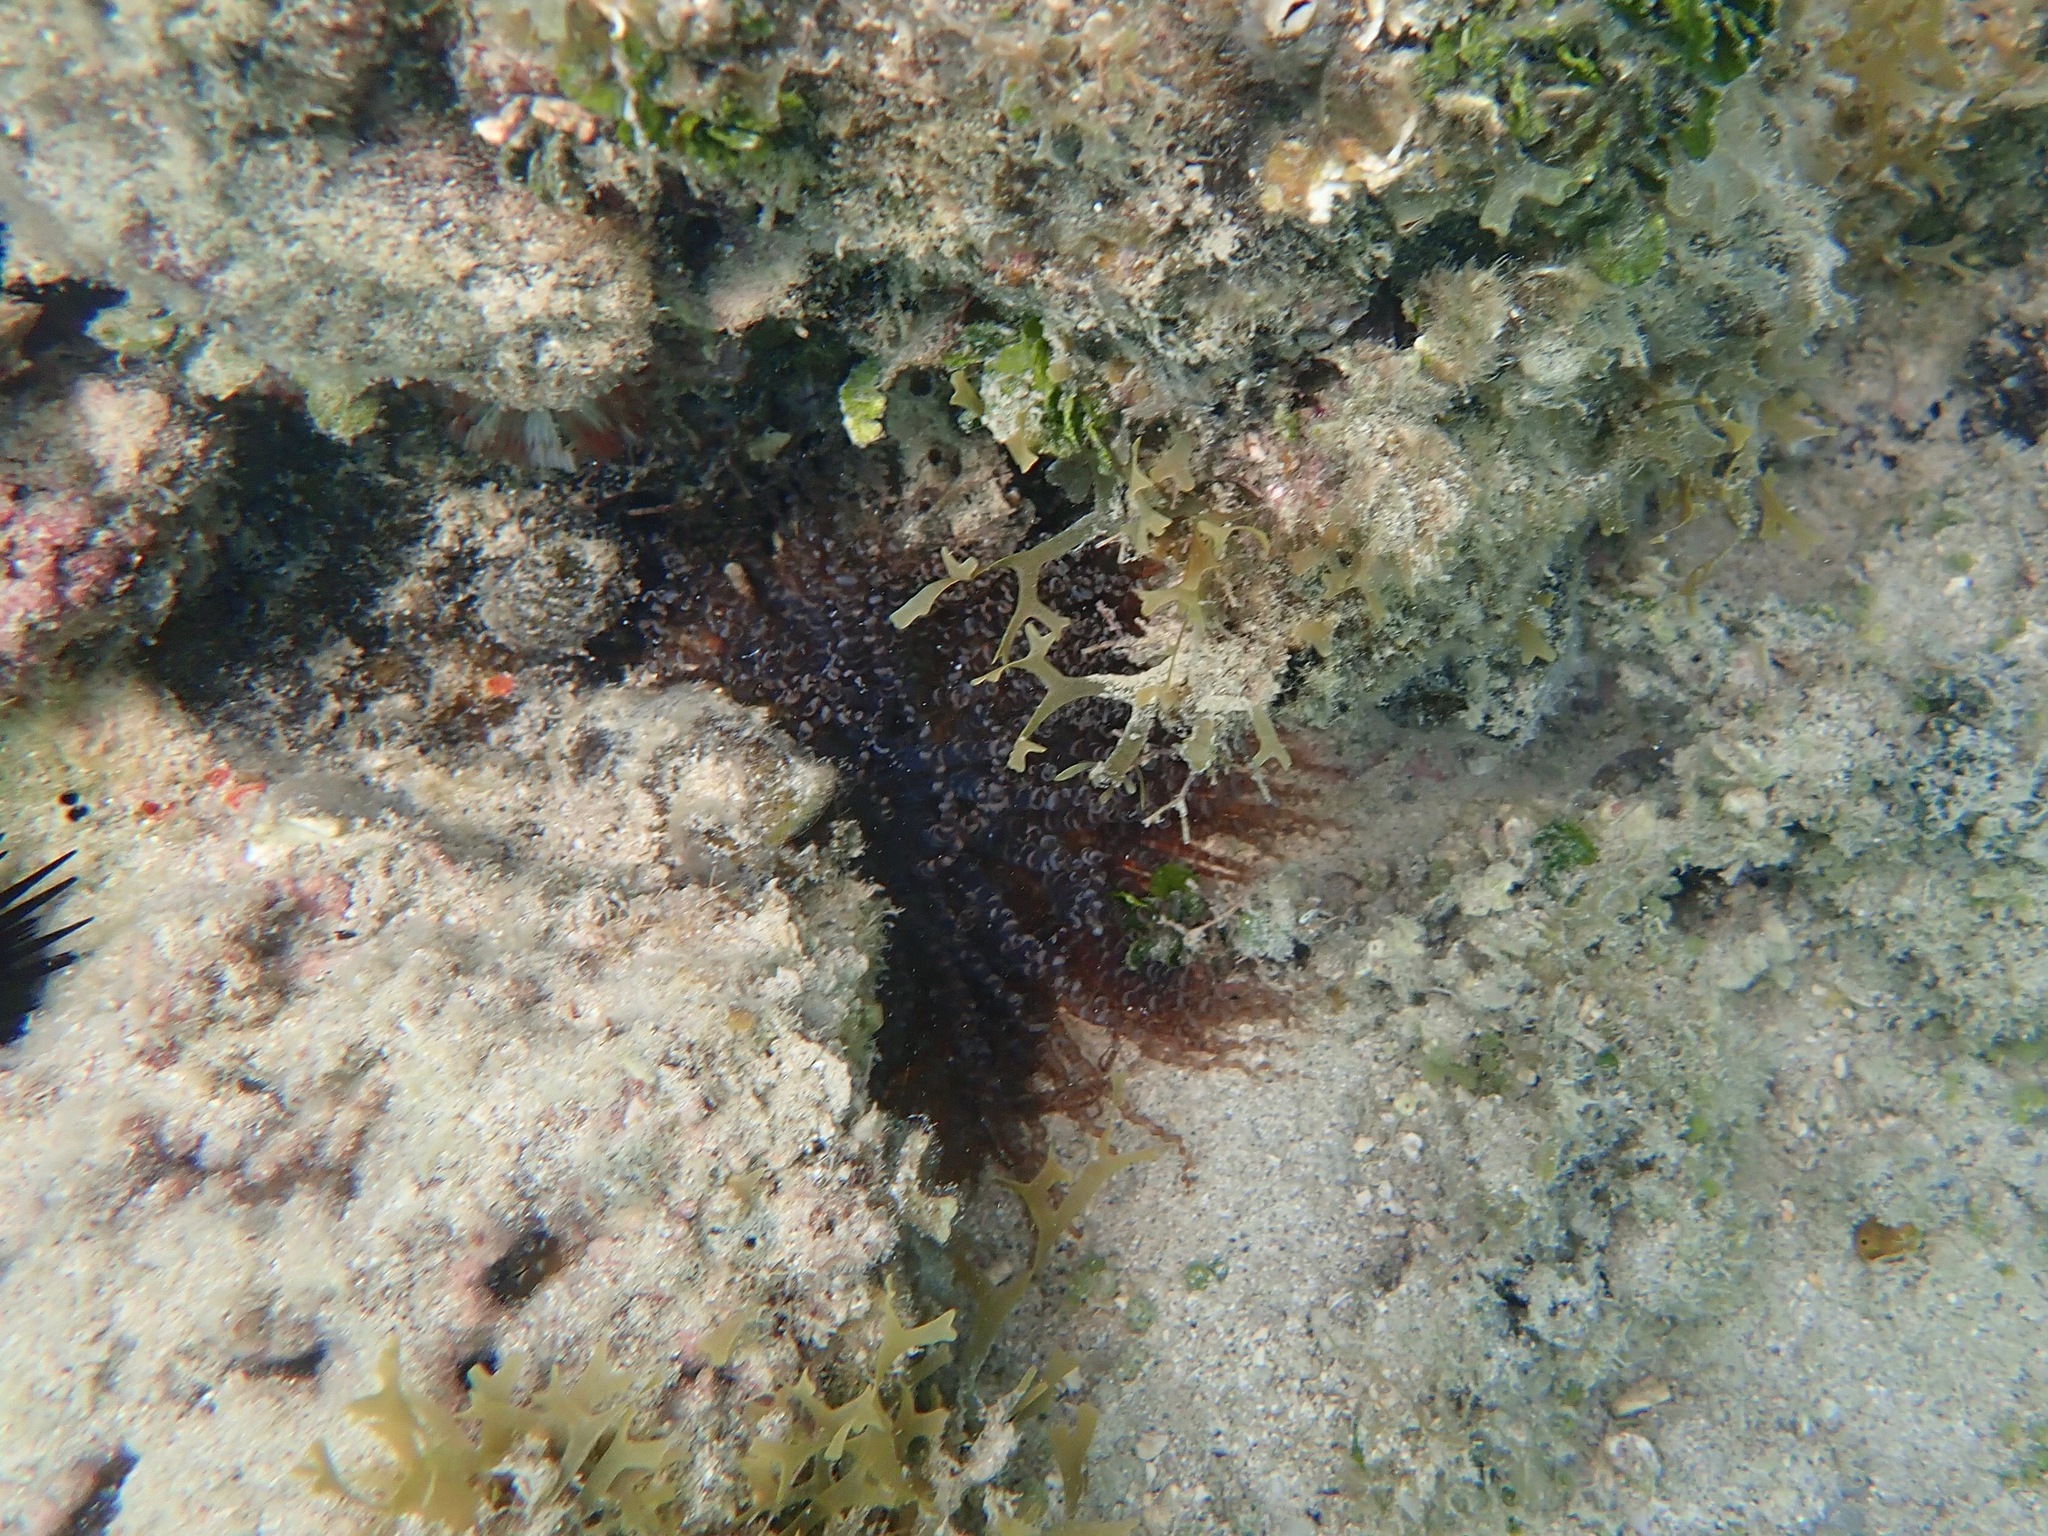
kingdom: Animalia
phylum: Cnidaria
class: Anthozoa
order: Actiniaria
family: Aiptasiidae
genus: Bartholomea
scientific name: Bartholomea annulata
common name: Corkscrew anemone
